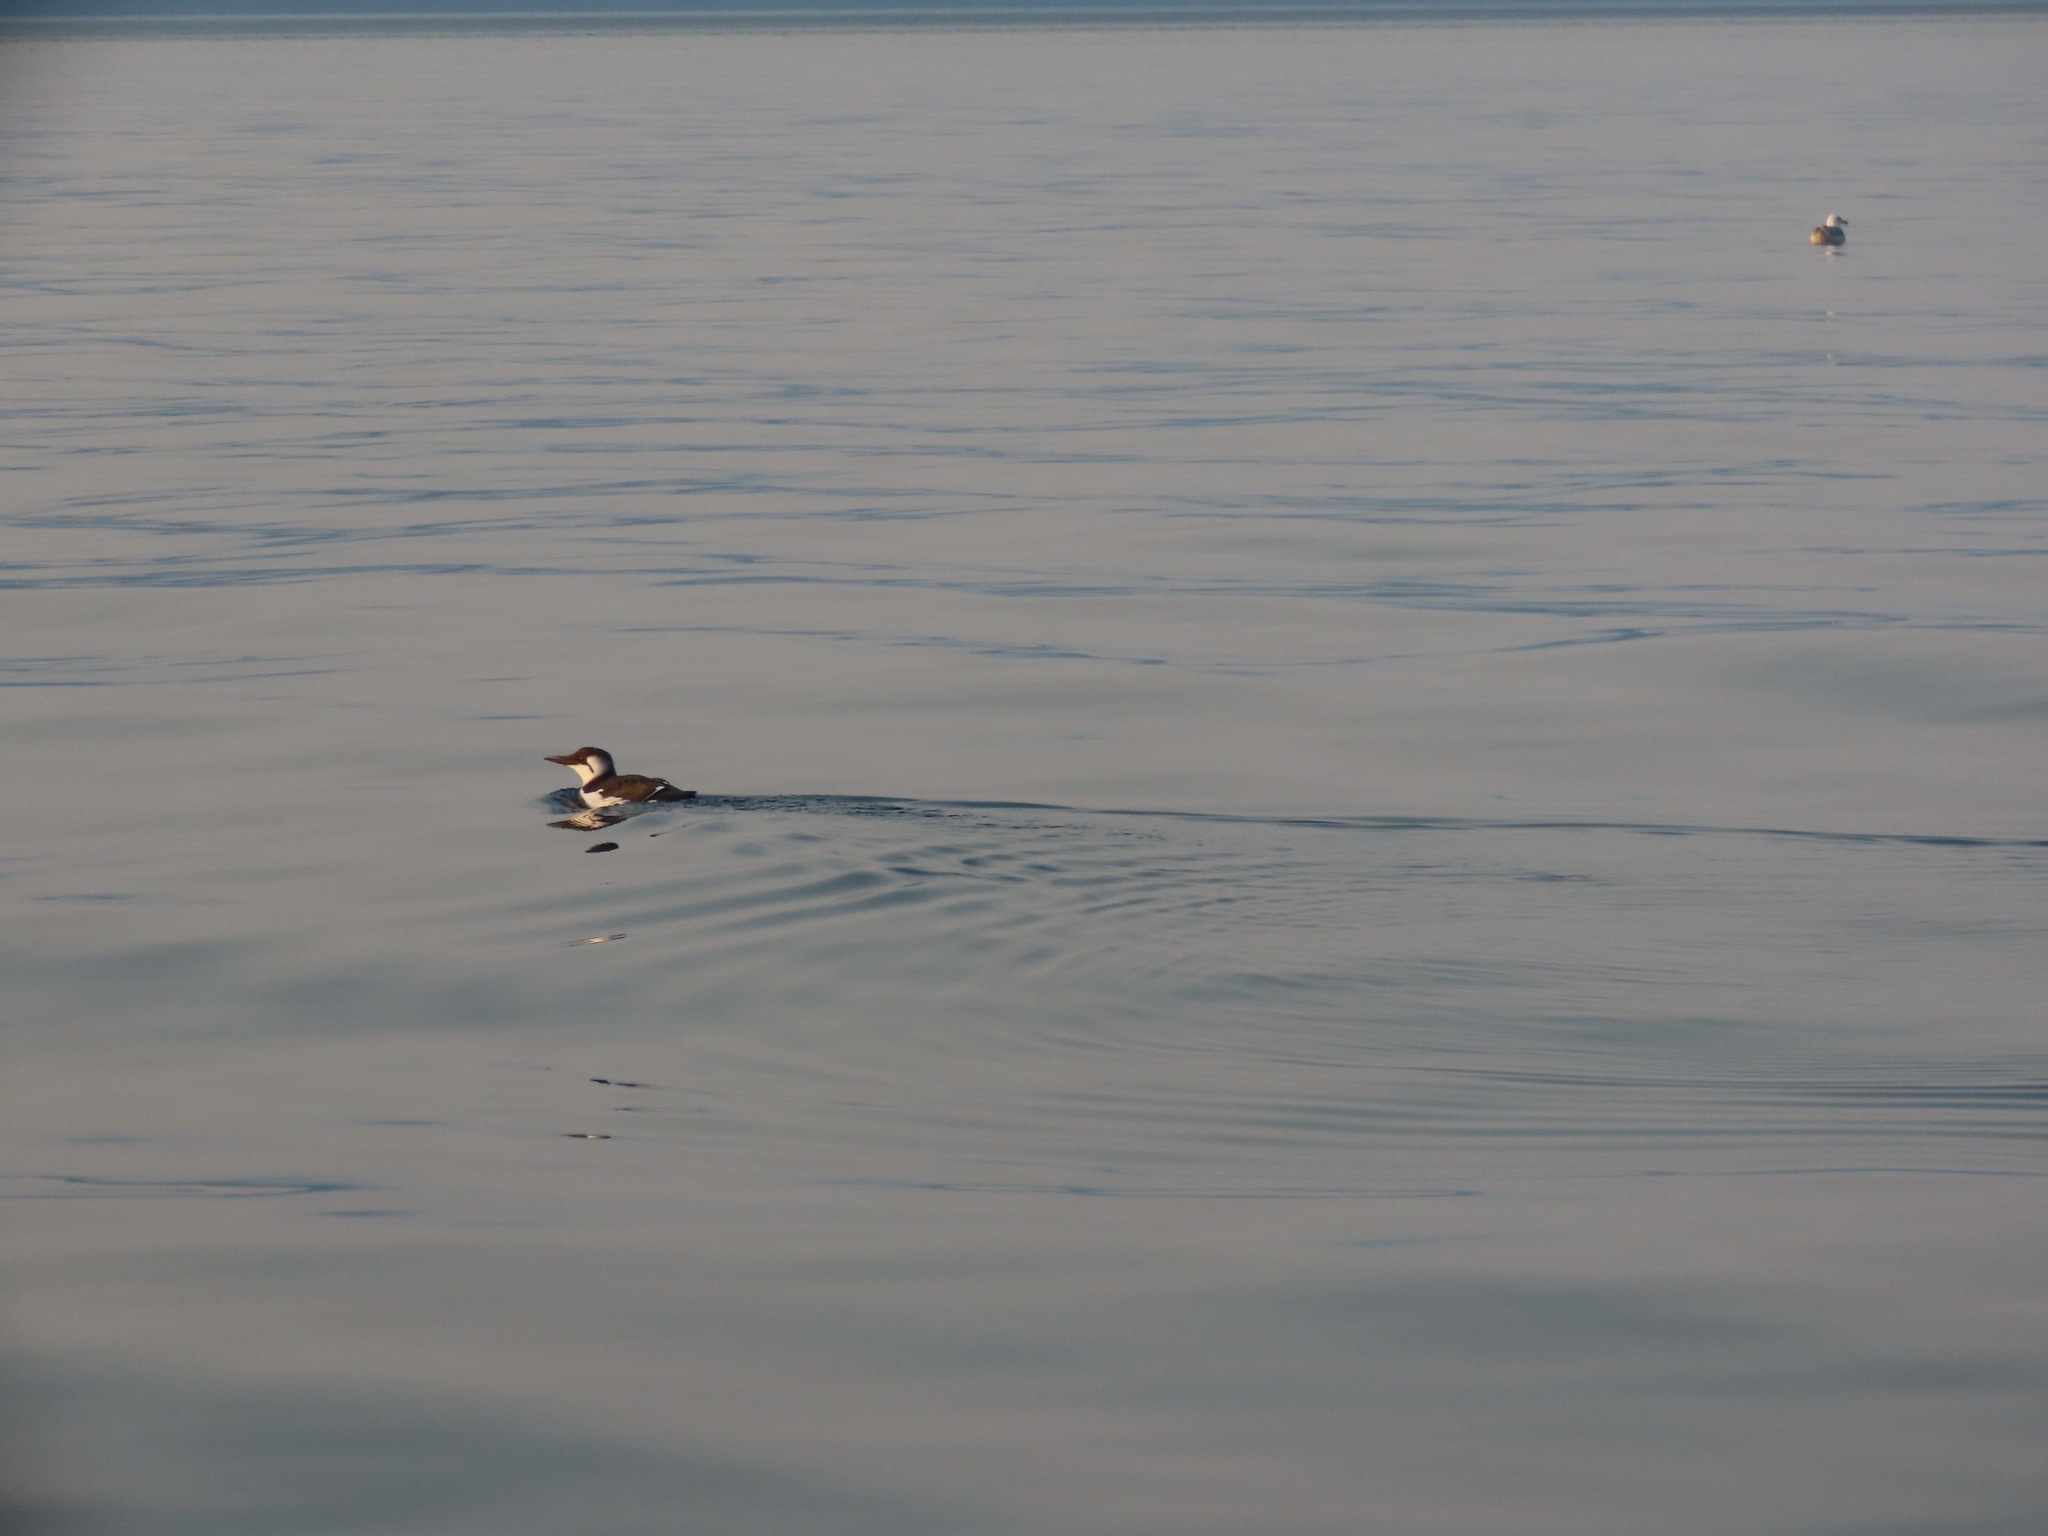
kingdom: Animalia
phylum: Chordata
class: Aves
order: Charadriiformes
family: Alcidae
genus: Uria
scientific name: Uria aalge
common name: Common murre
